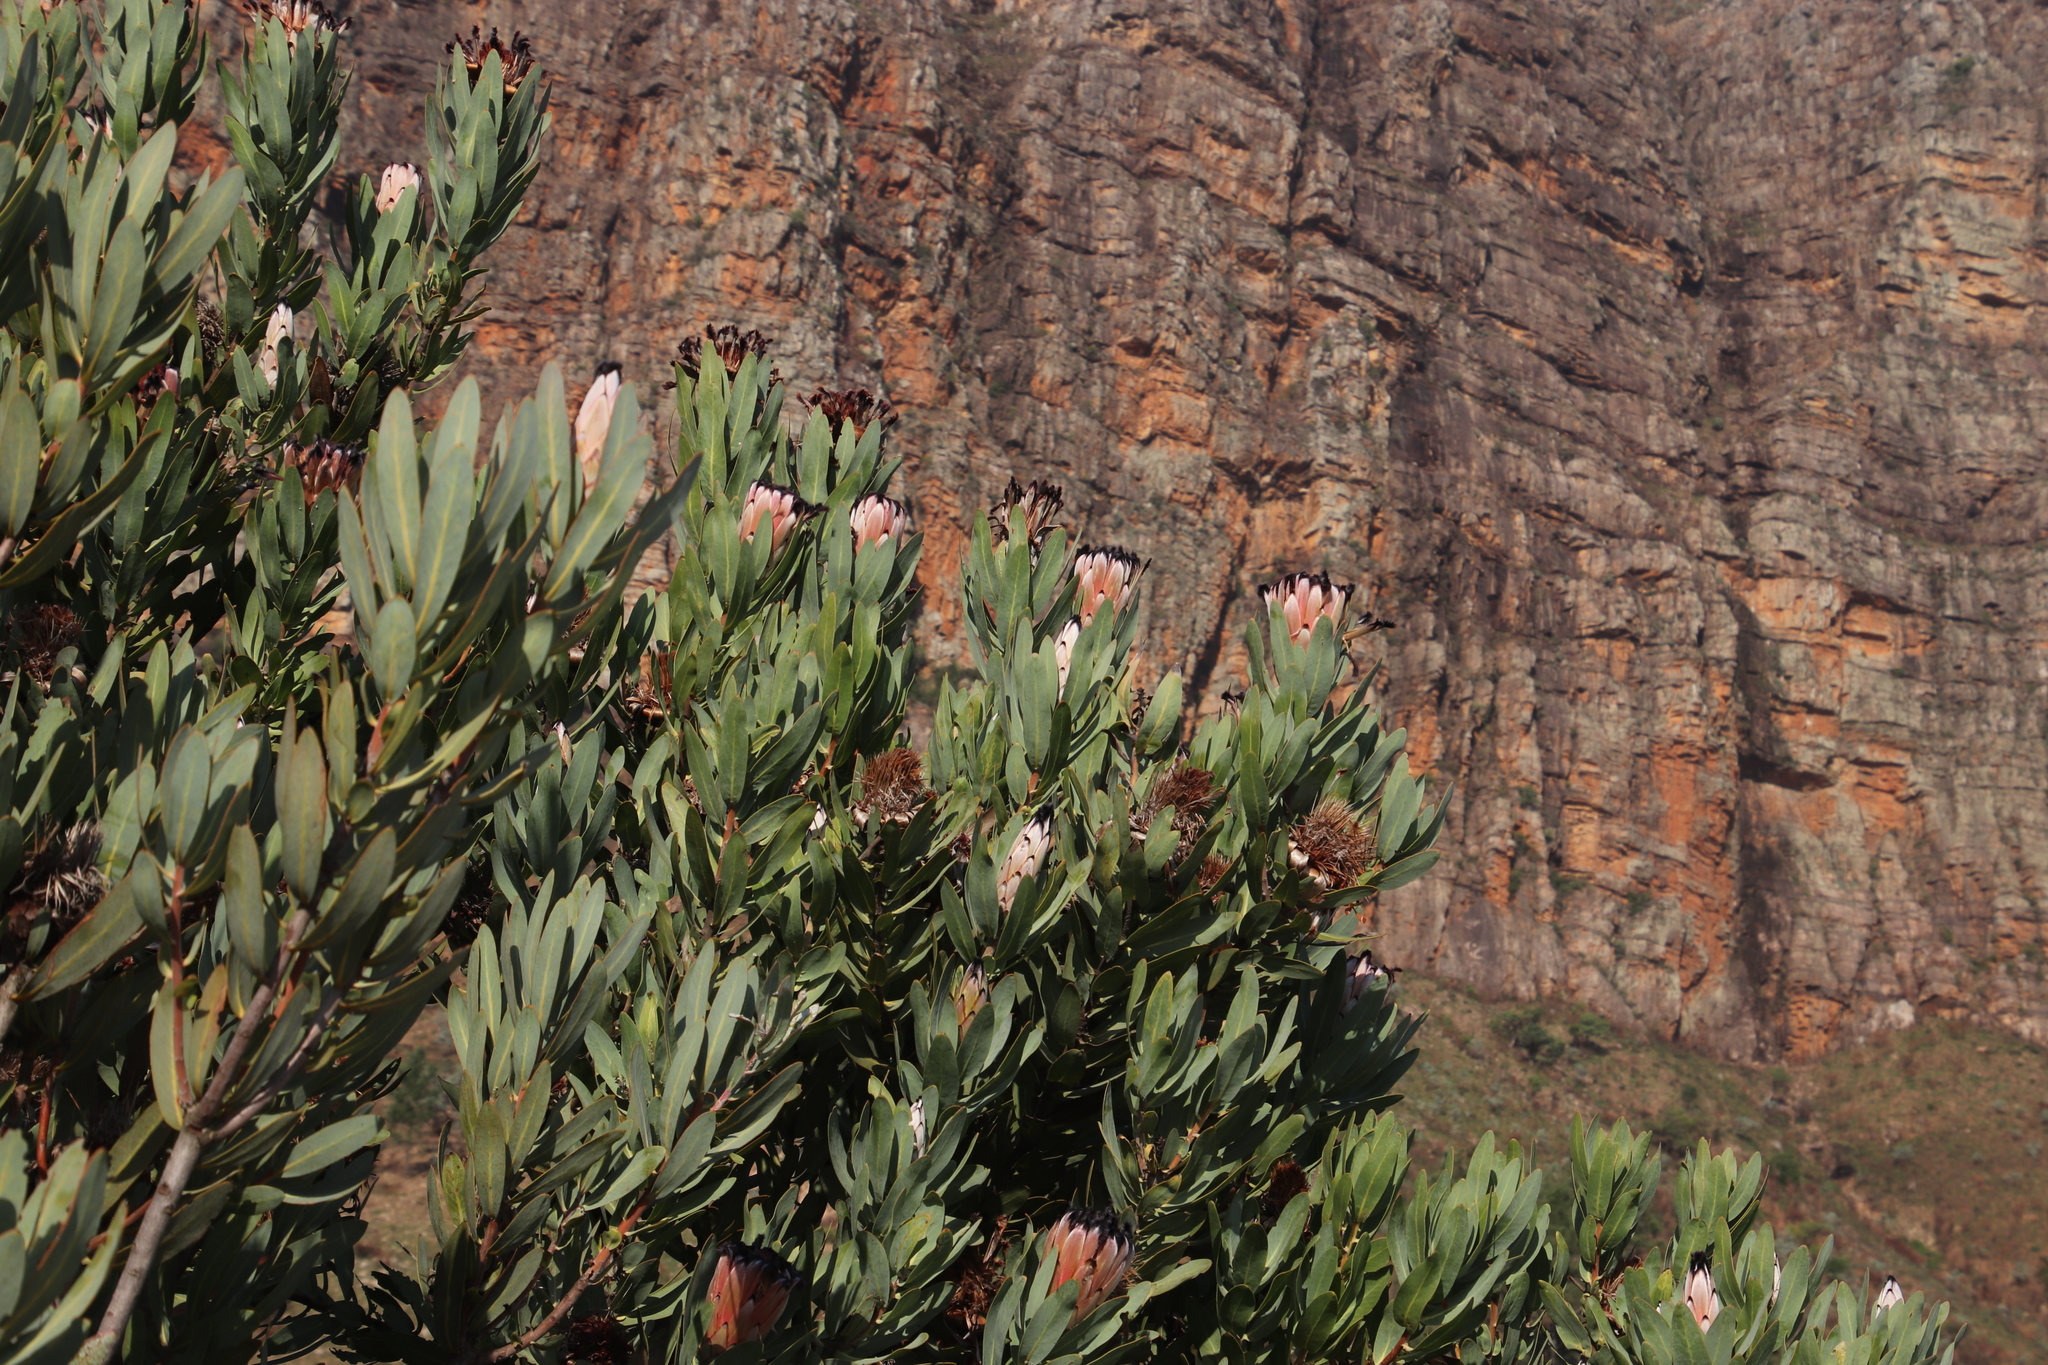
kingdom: Plantae
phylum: Tracheophyta
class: Magnoliopsida
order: Proteales
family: Proteaceae
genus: Protea
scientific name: Protea laurifolia
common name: Grey-leaf sugarbsh
